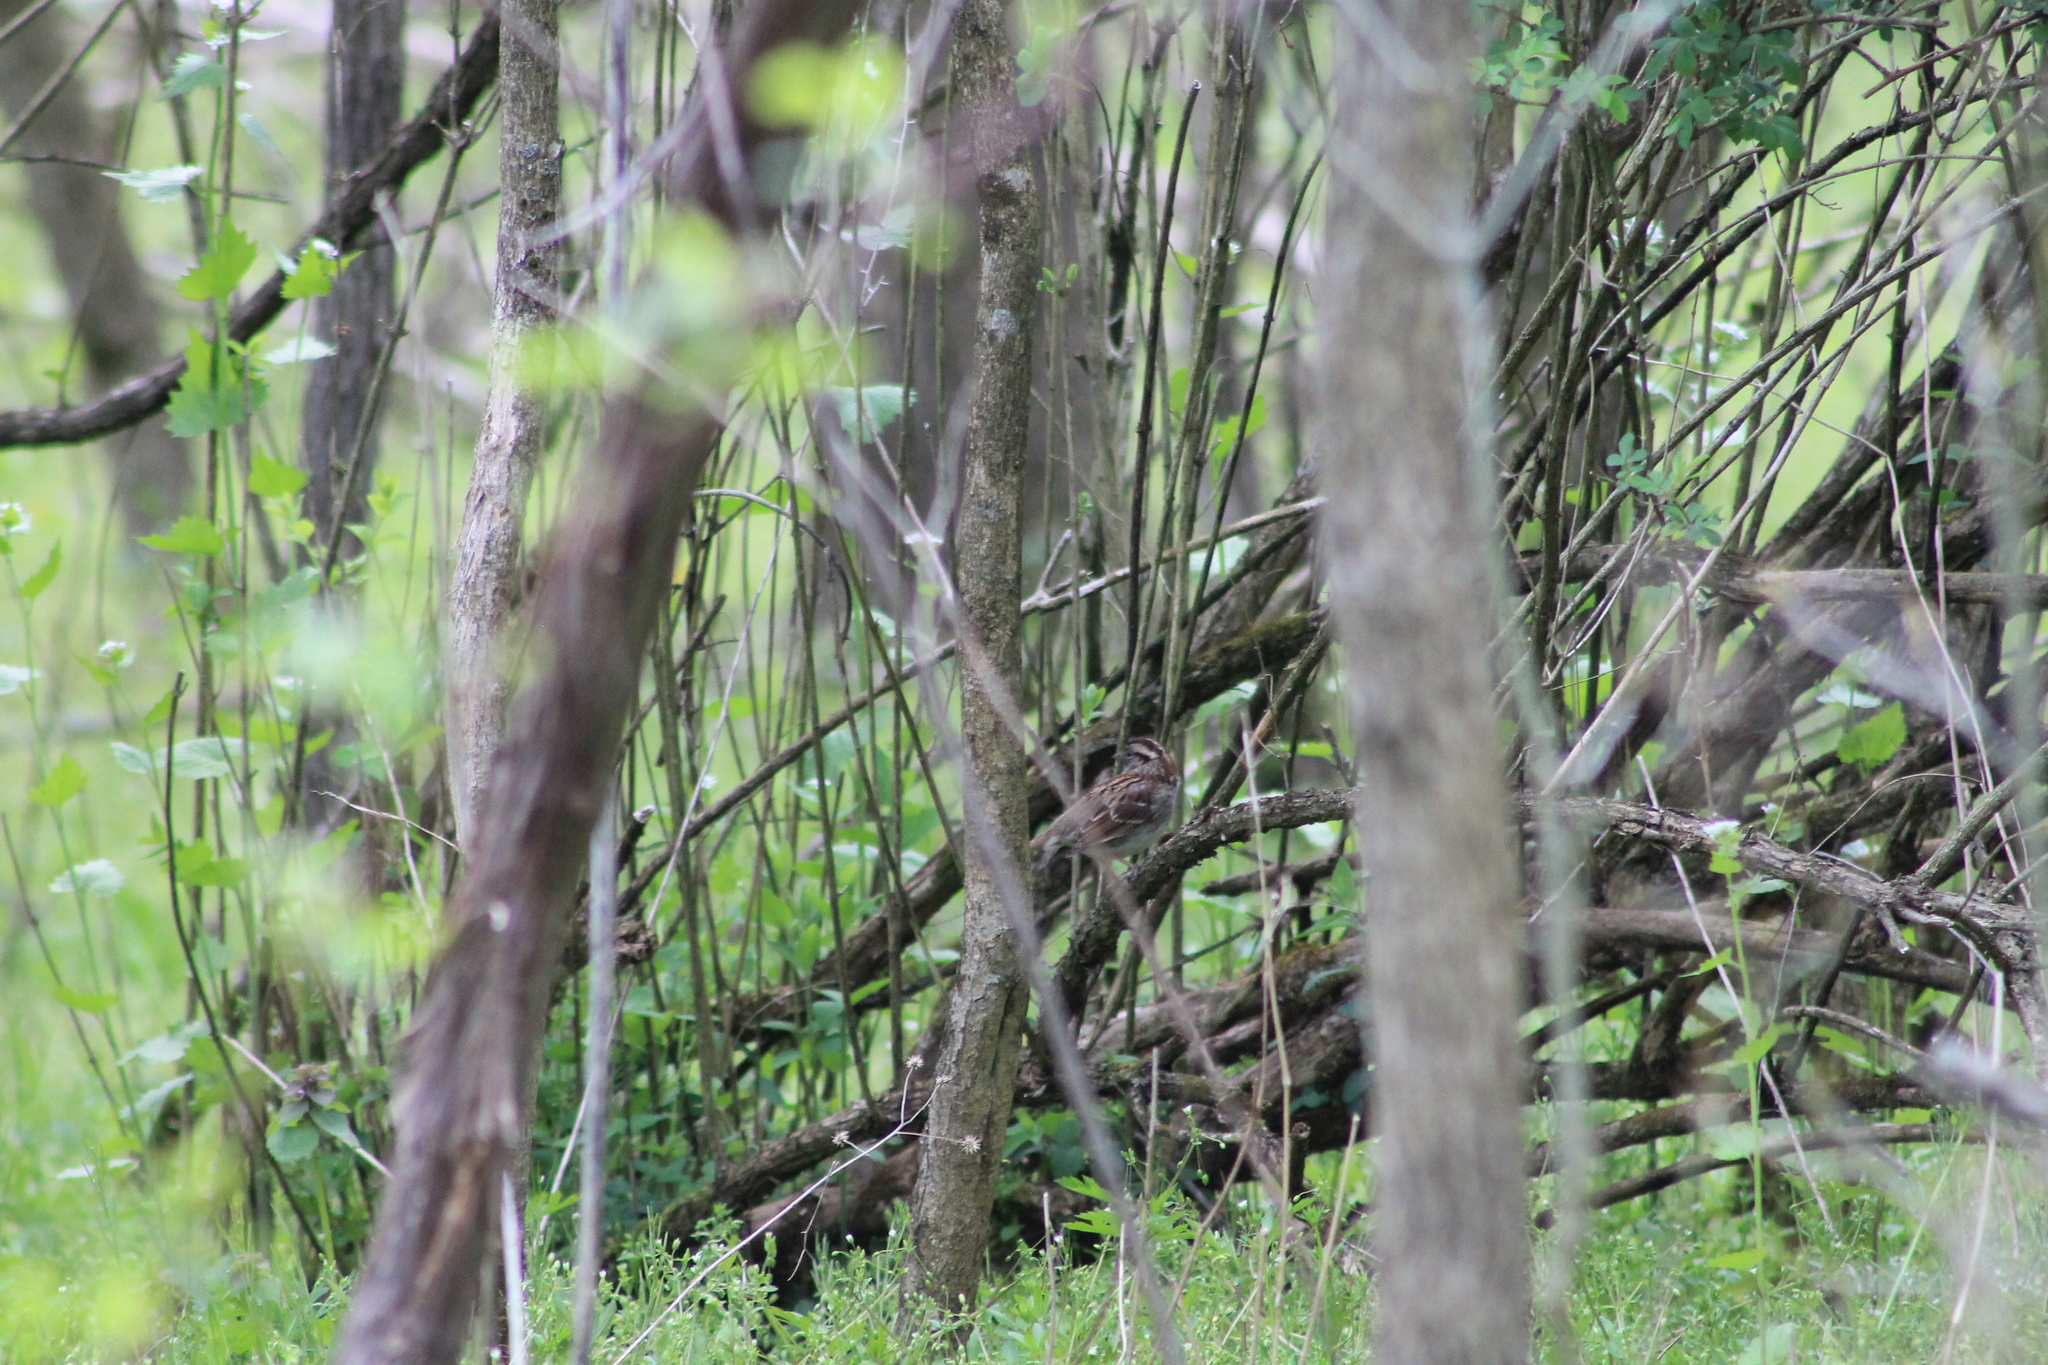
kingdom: Animalia
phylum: Chordata
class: Aves
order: Passeriformes
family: Passerellidae
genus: Zonotrichia
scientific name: Zonotrichia albicollis
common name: White-throated sparrow
